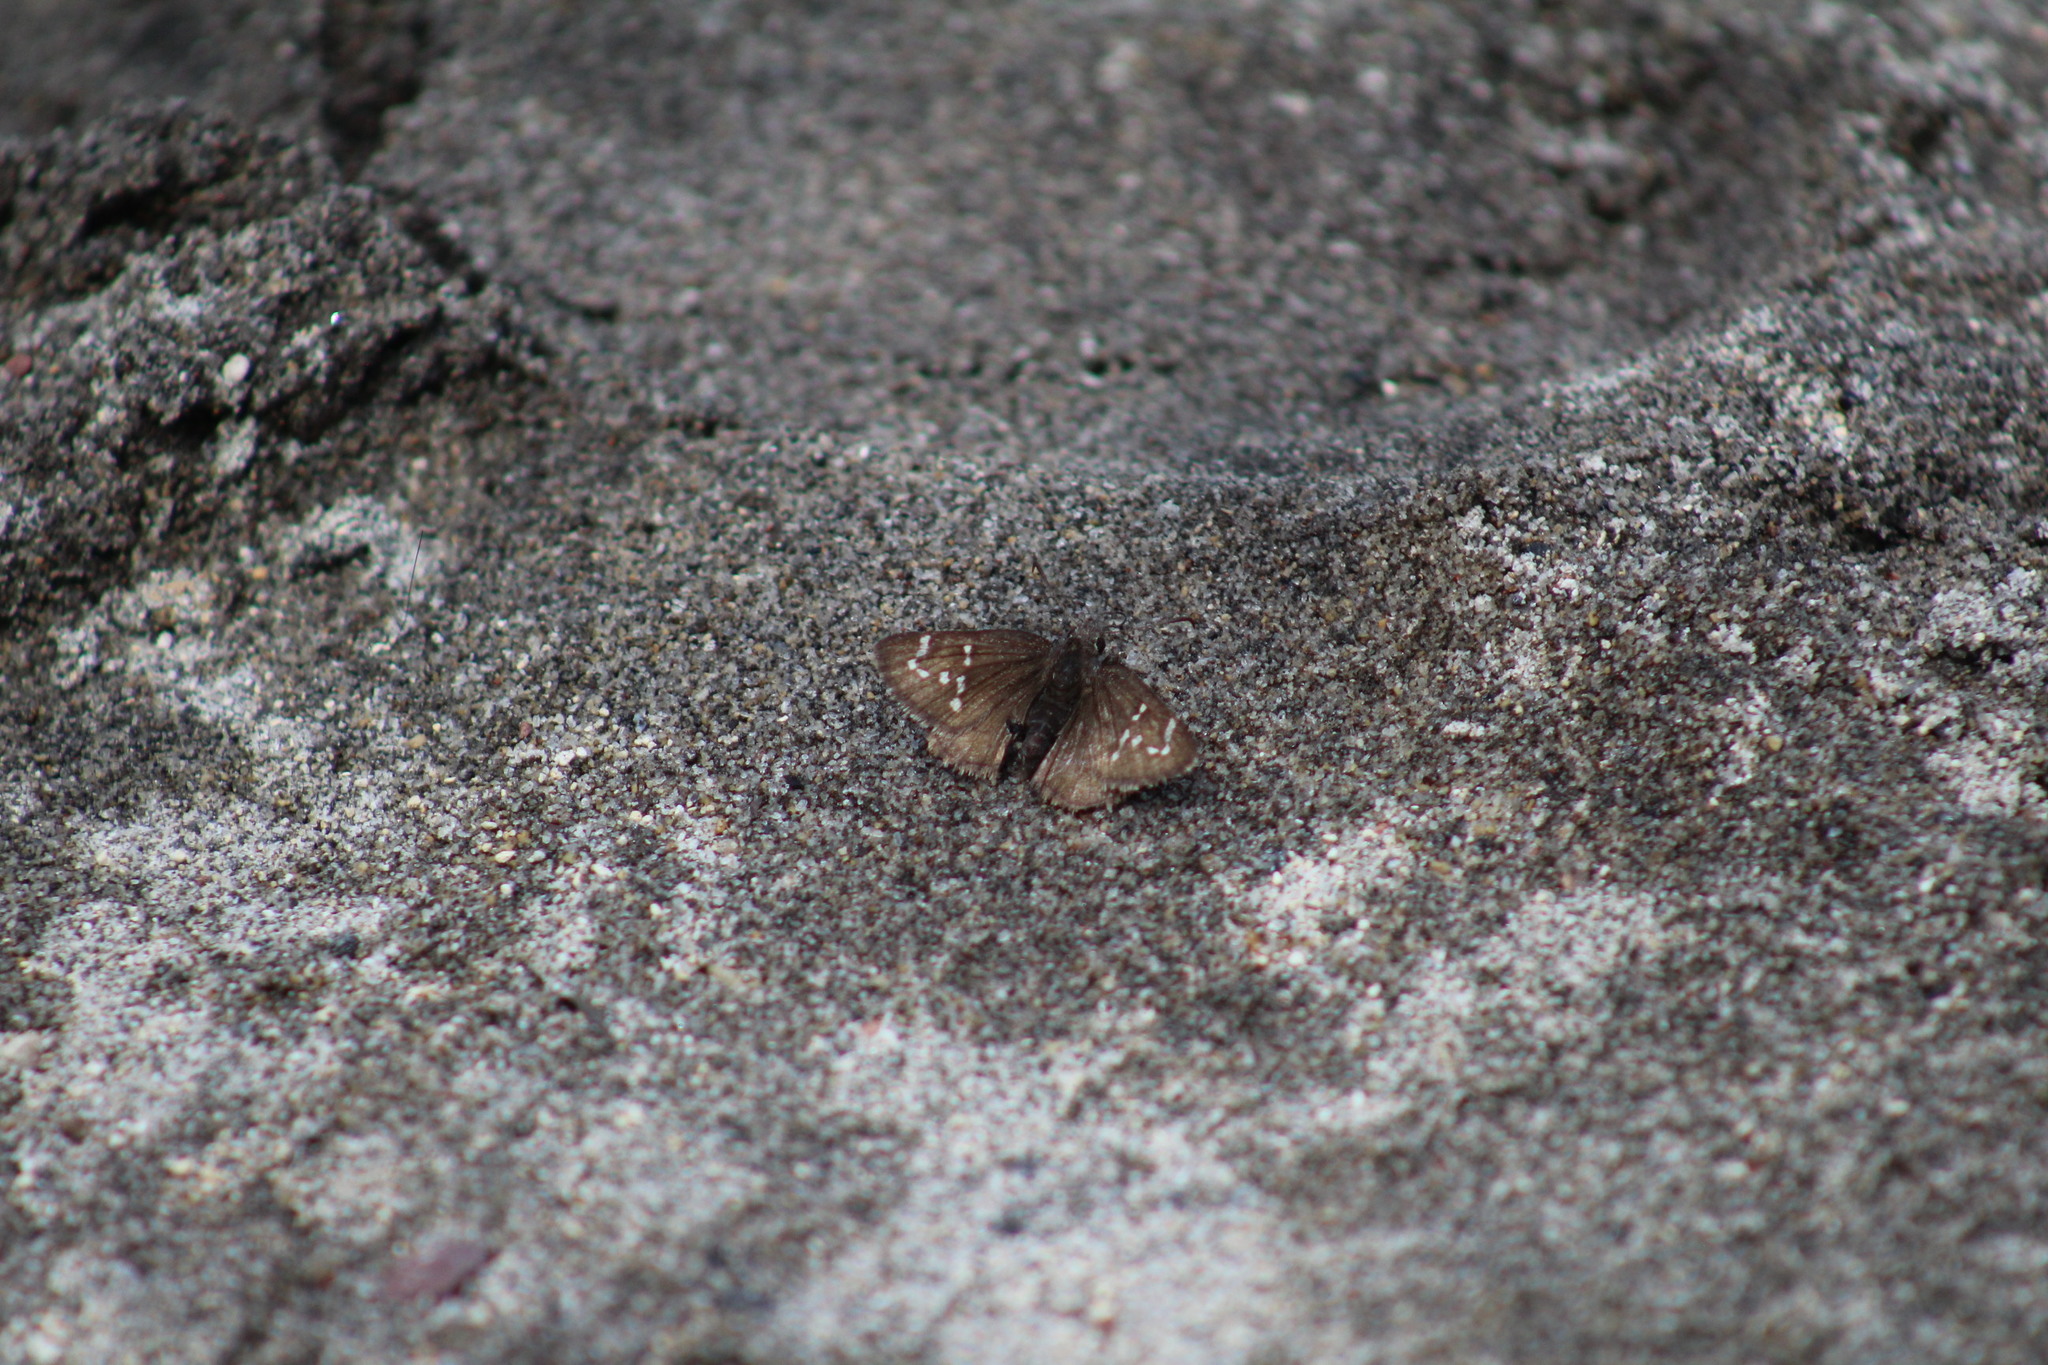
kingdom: Animalia
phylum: Arthropoda
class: Insecta
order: Lepidoptera
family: Hesperiidae
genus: Thorybes
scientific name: Thorybes mexicana
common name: Mexican cloudywing
